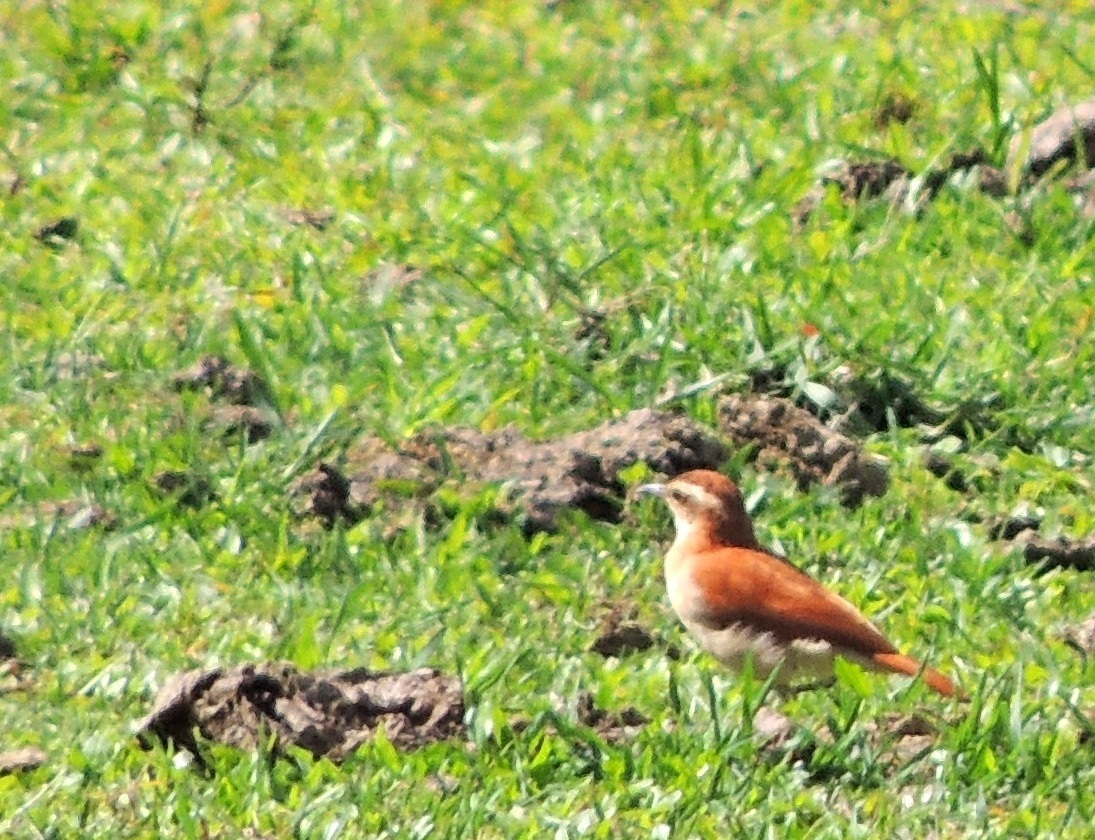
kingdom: Animalia
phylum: Chordata
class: Aves
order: Passeriformes
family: Furnariidae
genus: Furnarius
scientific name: Furnarius figulus
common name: Band-tailed hornero
